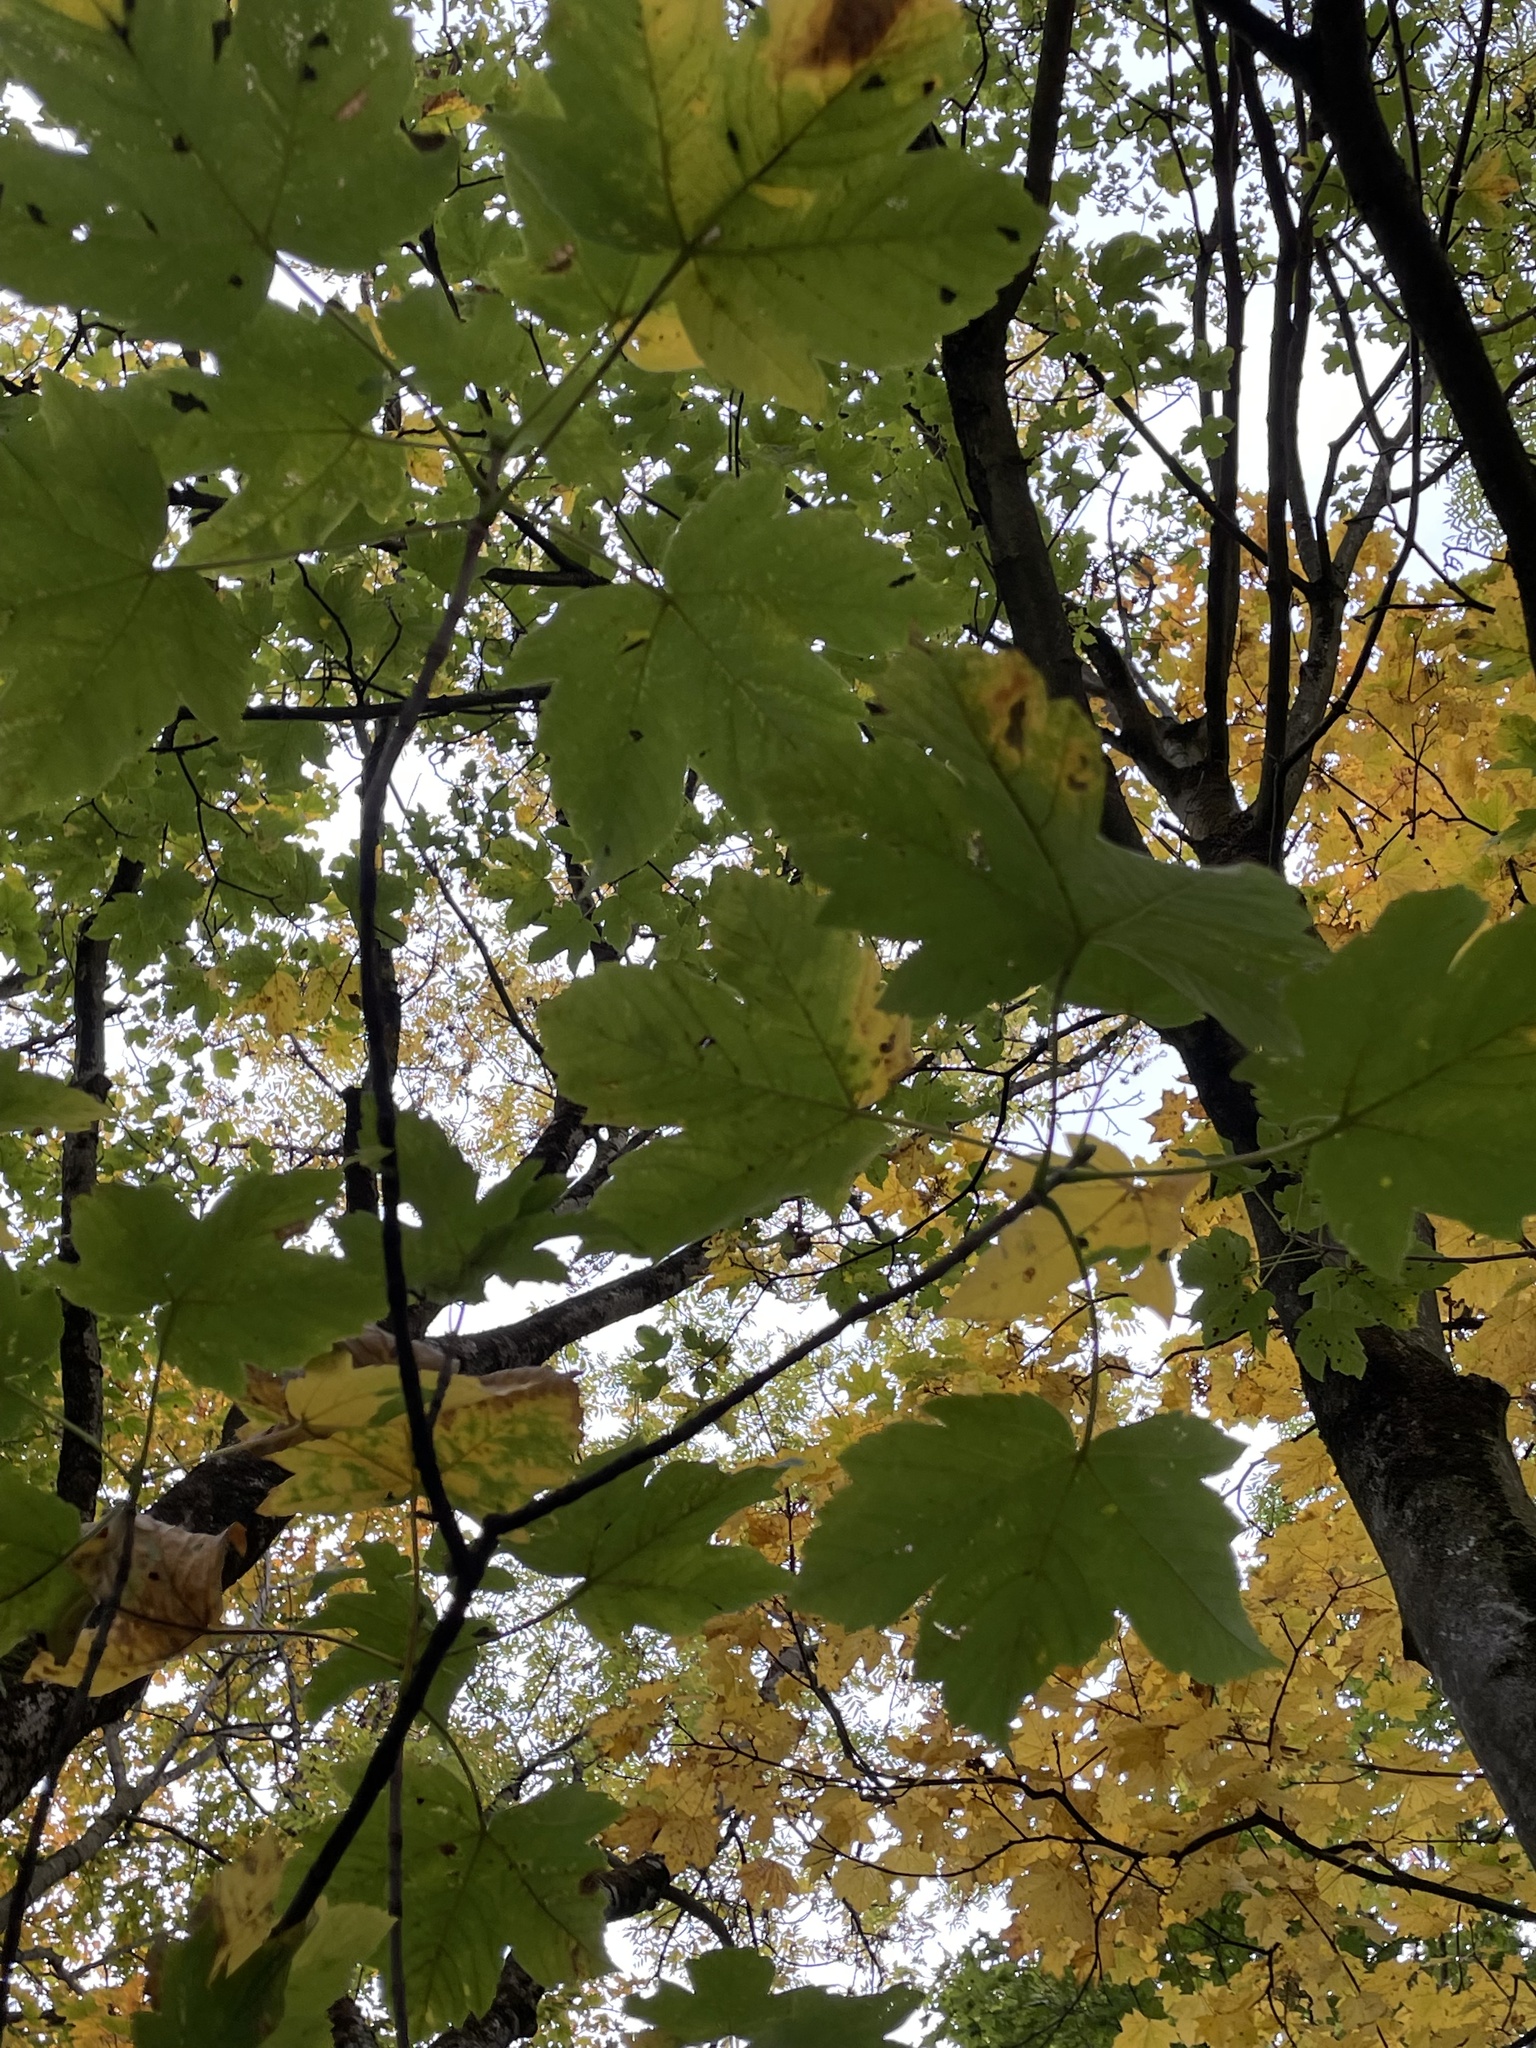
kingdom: Plantae
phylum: Tracheophyta
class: Magnoliopsida
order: Sapindales
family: Sapindaceae
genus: Acer
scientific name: Acer pseudoplatanus
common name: Sycamore
